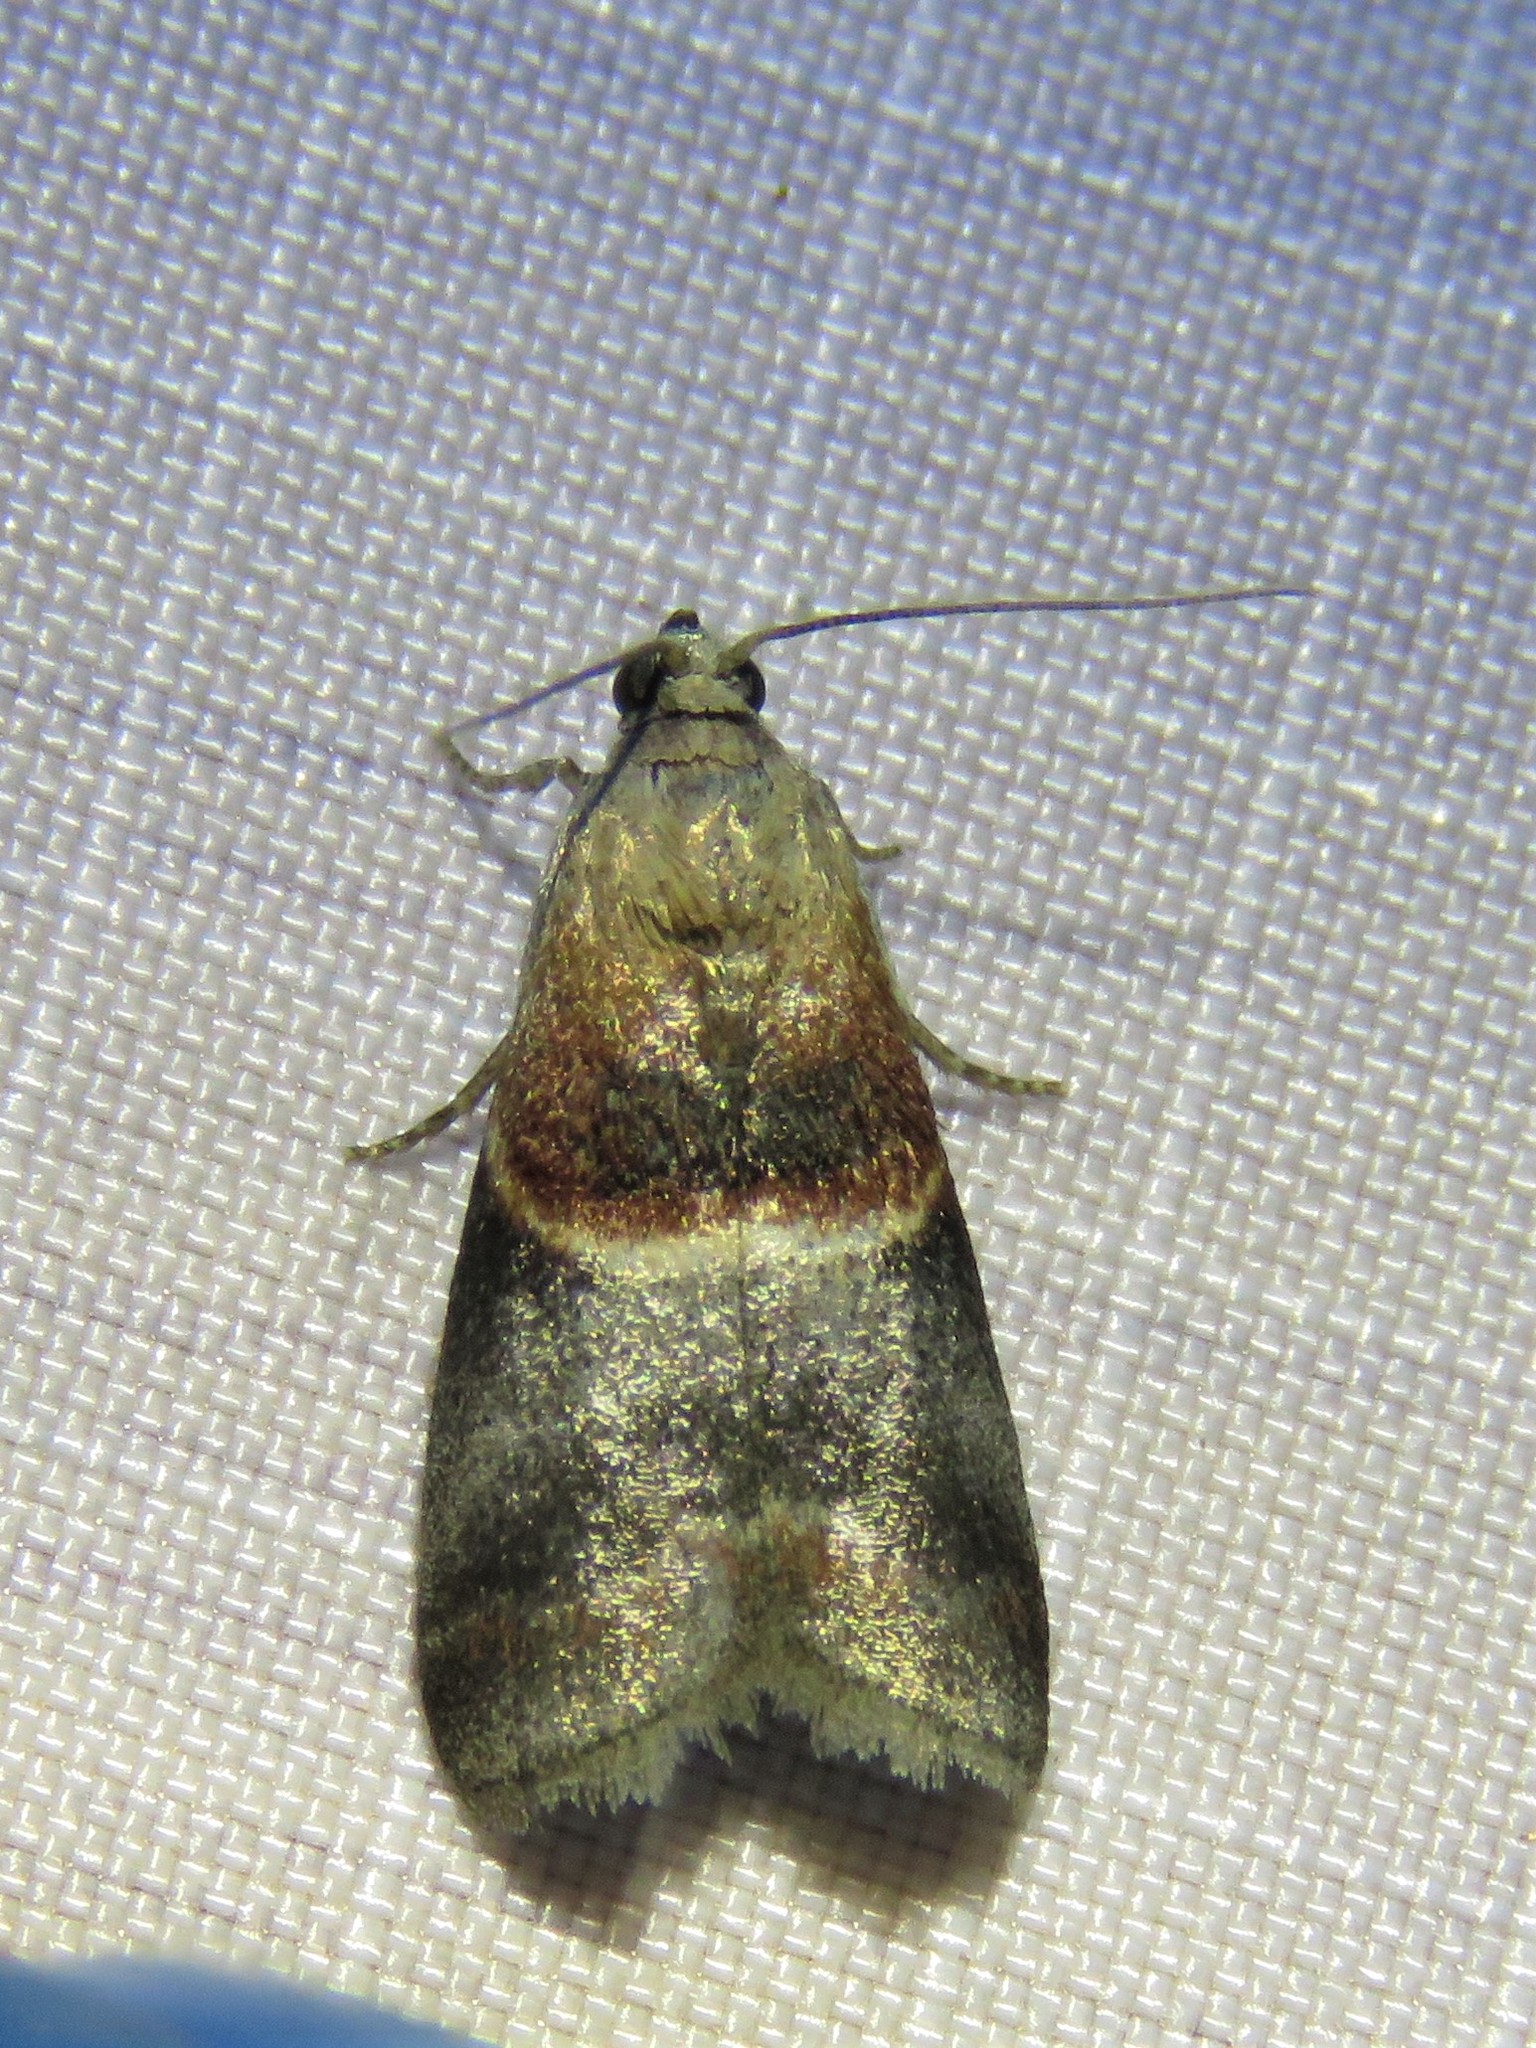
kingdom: Animalia
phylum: Arthropoda
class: Insecta
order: Lepidoptera
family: Pyralidae
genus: Acrobasis
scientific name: Acrobasis demotella
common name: Walnut shoot moth
